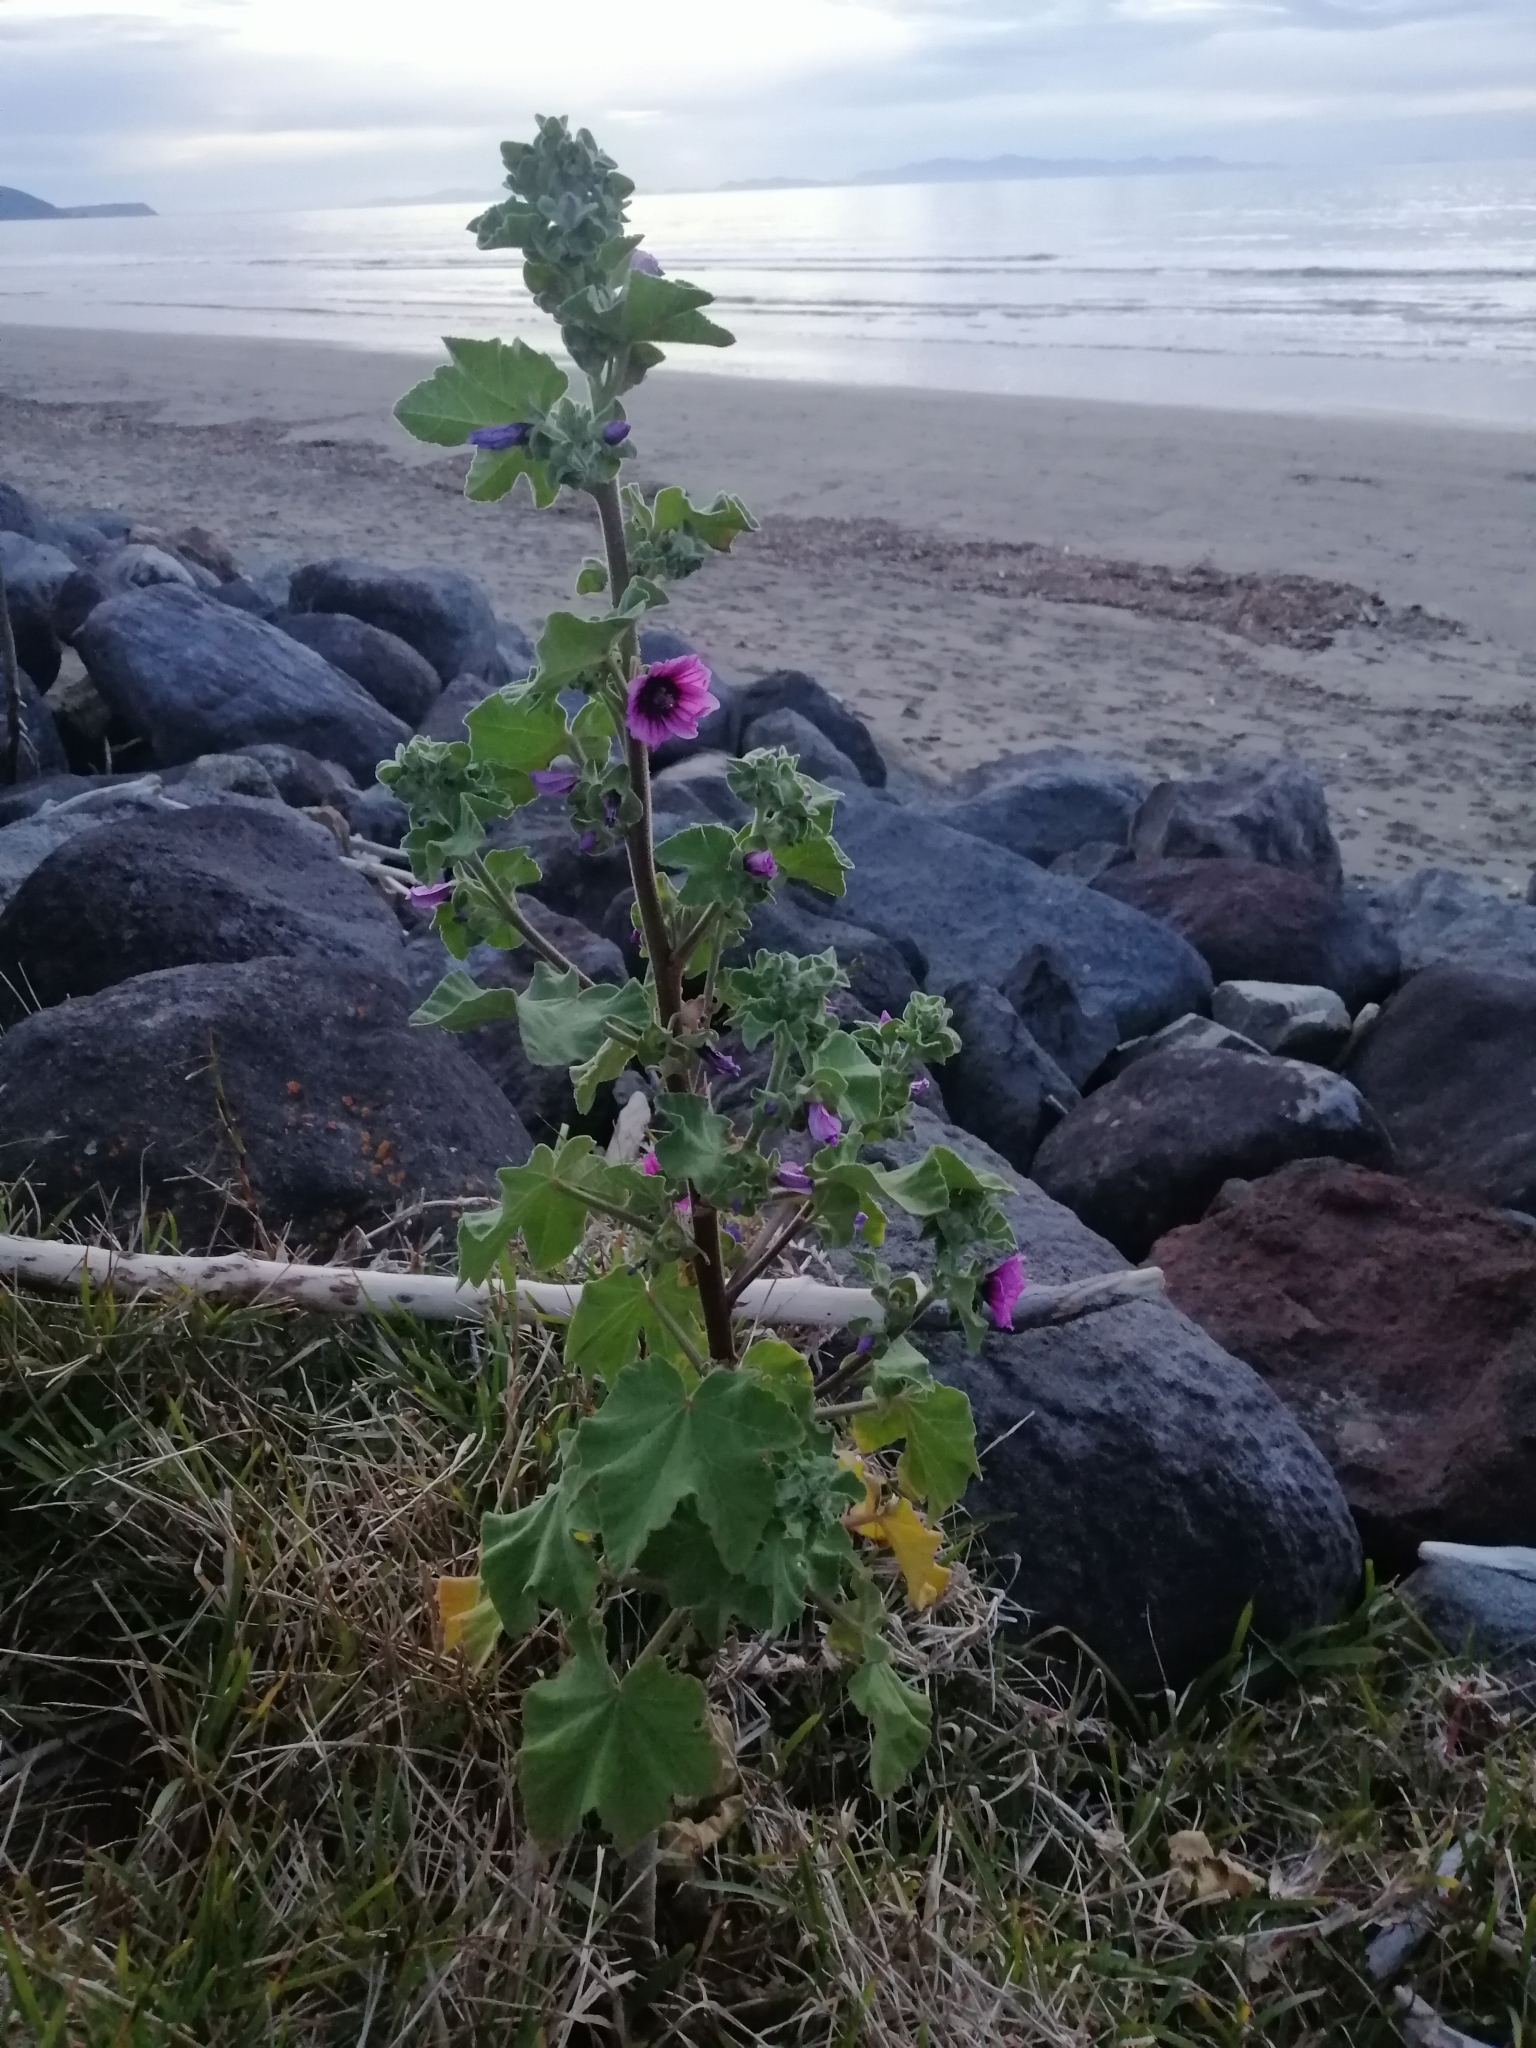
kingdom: Plantae
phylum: Tracheophyta
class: Magnoliopsida
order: Malvales
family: Malvaceae
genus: Malva
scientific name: Malva arborea
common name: Tree mallow
